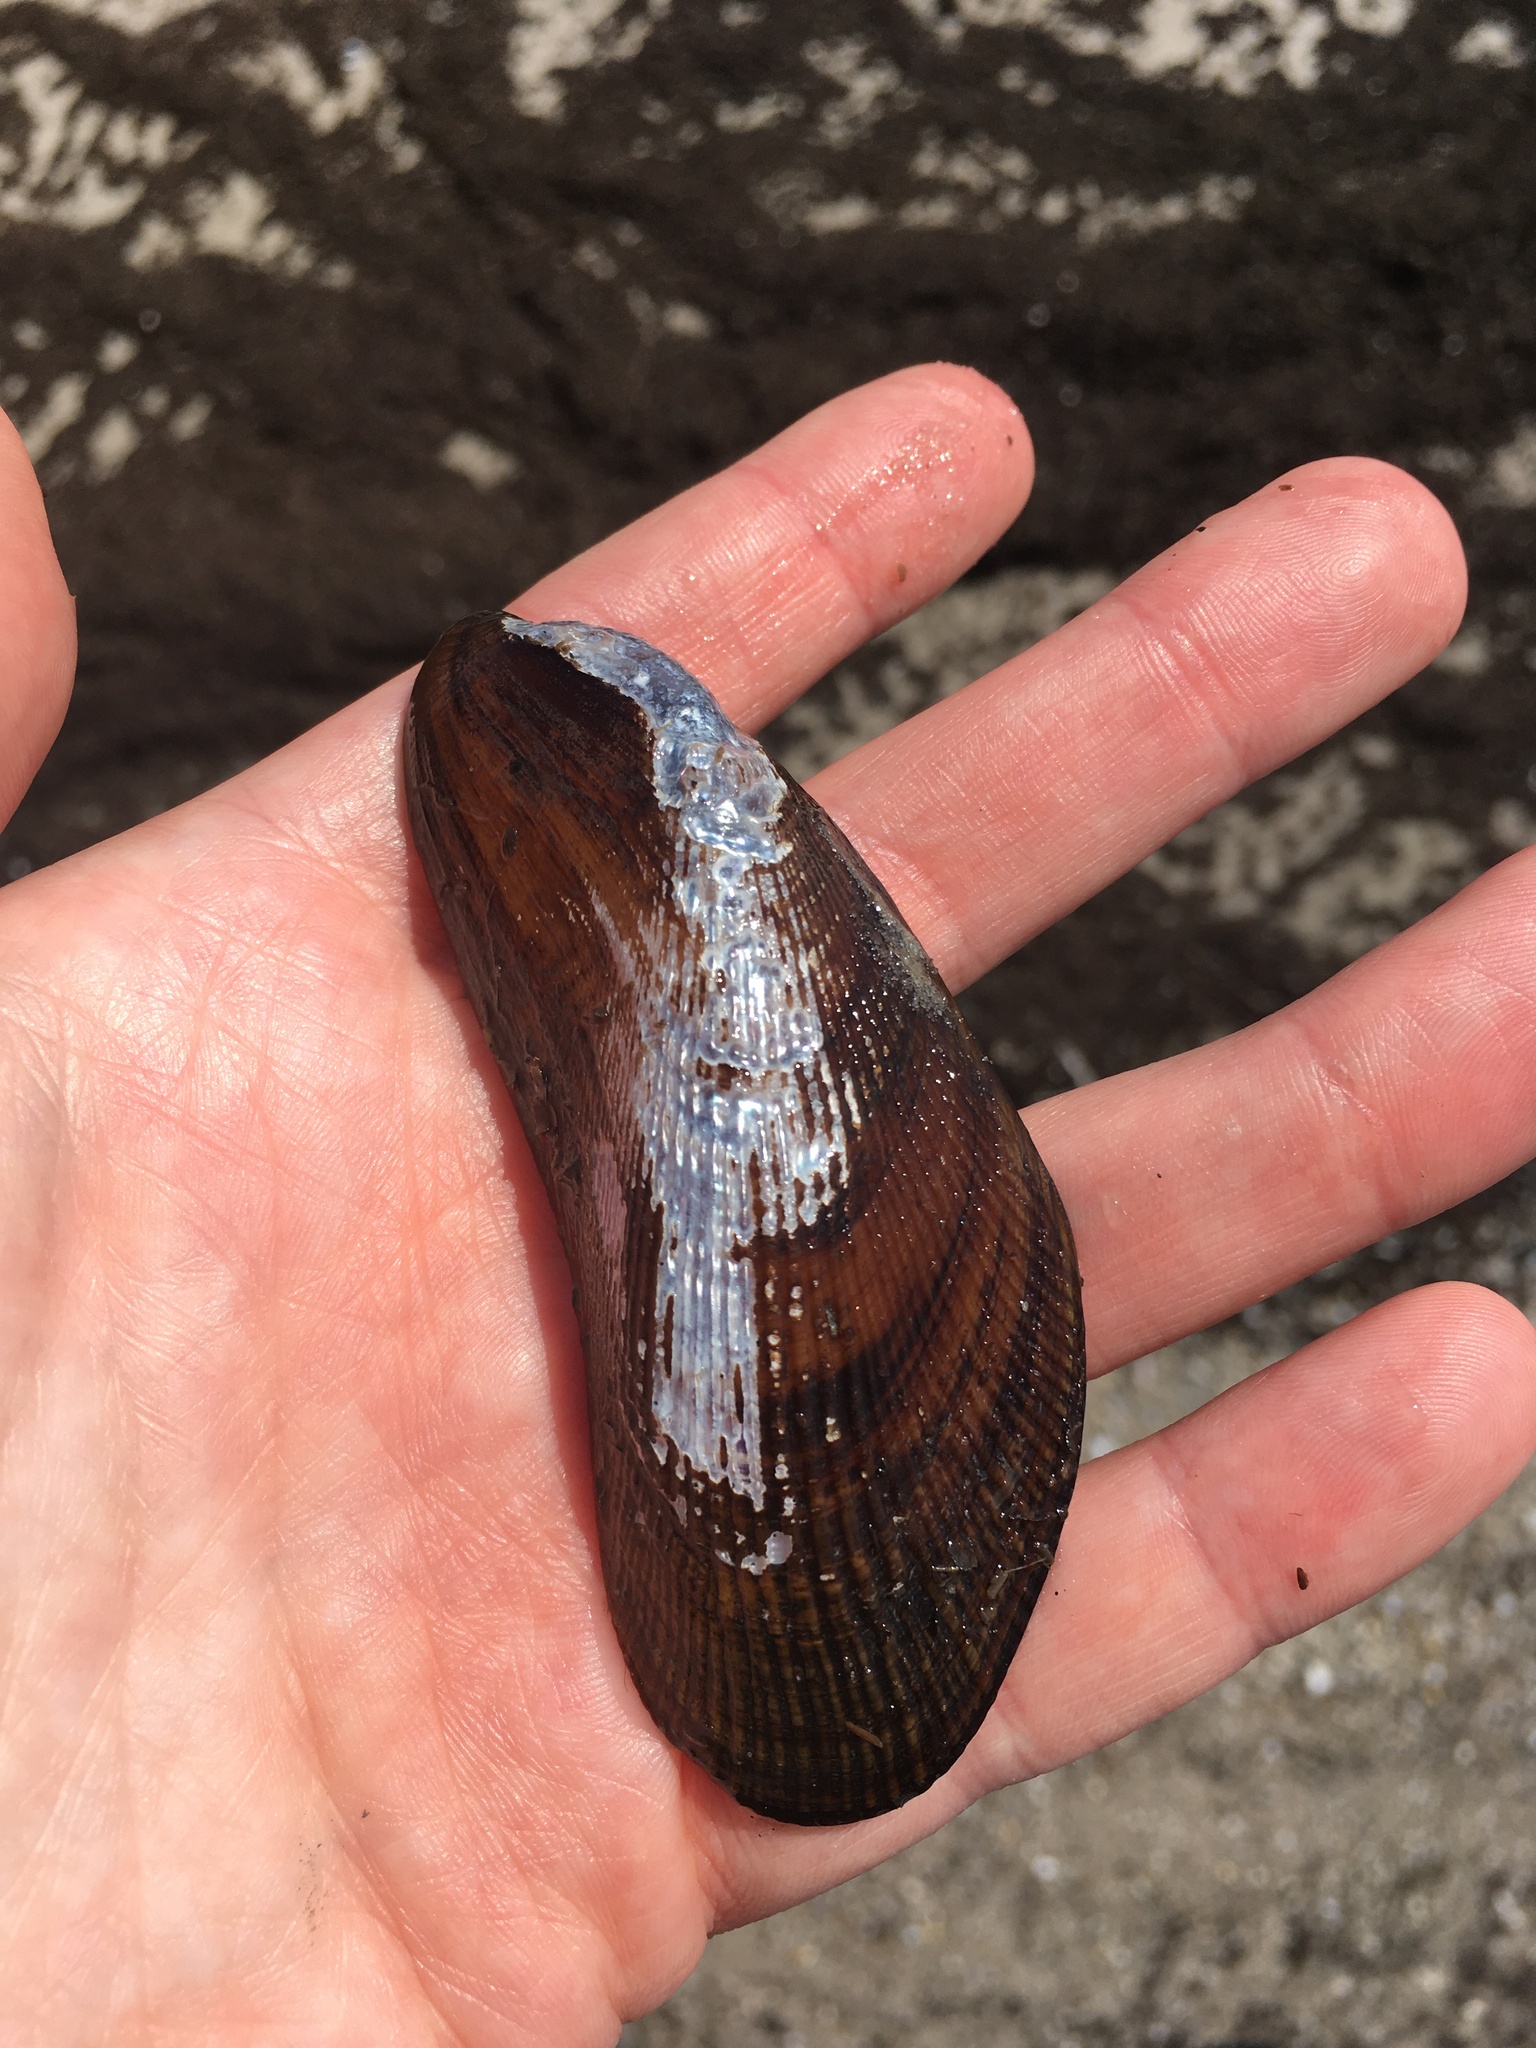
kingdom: Animalia
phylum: Mollusca
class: Bivalvia
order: Mytilida
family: Mytilidae
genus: Geukensia
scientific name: Geukensia demissa
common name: Ribbed mussel
